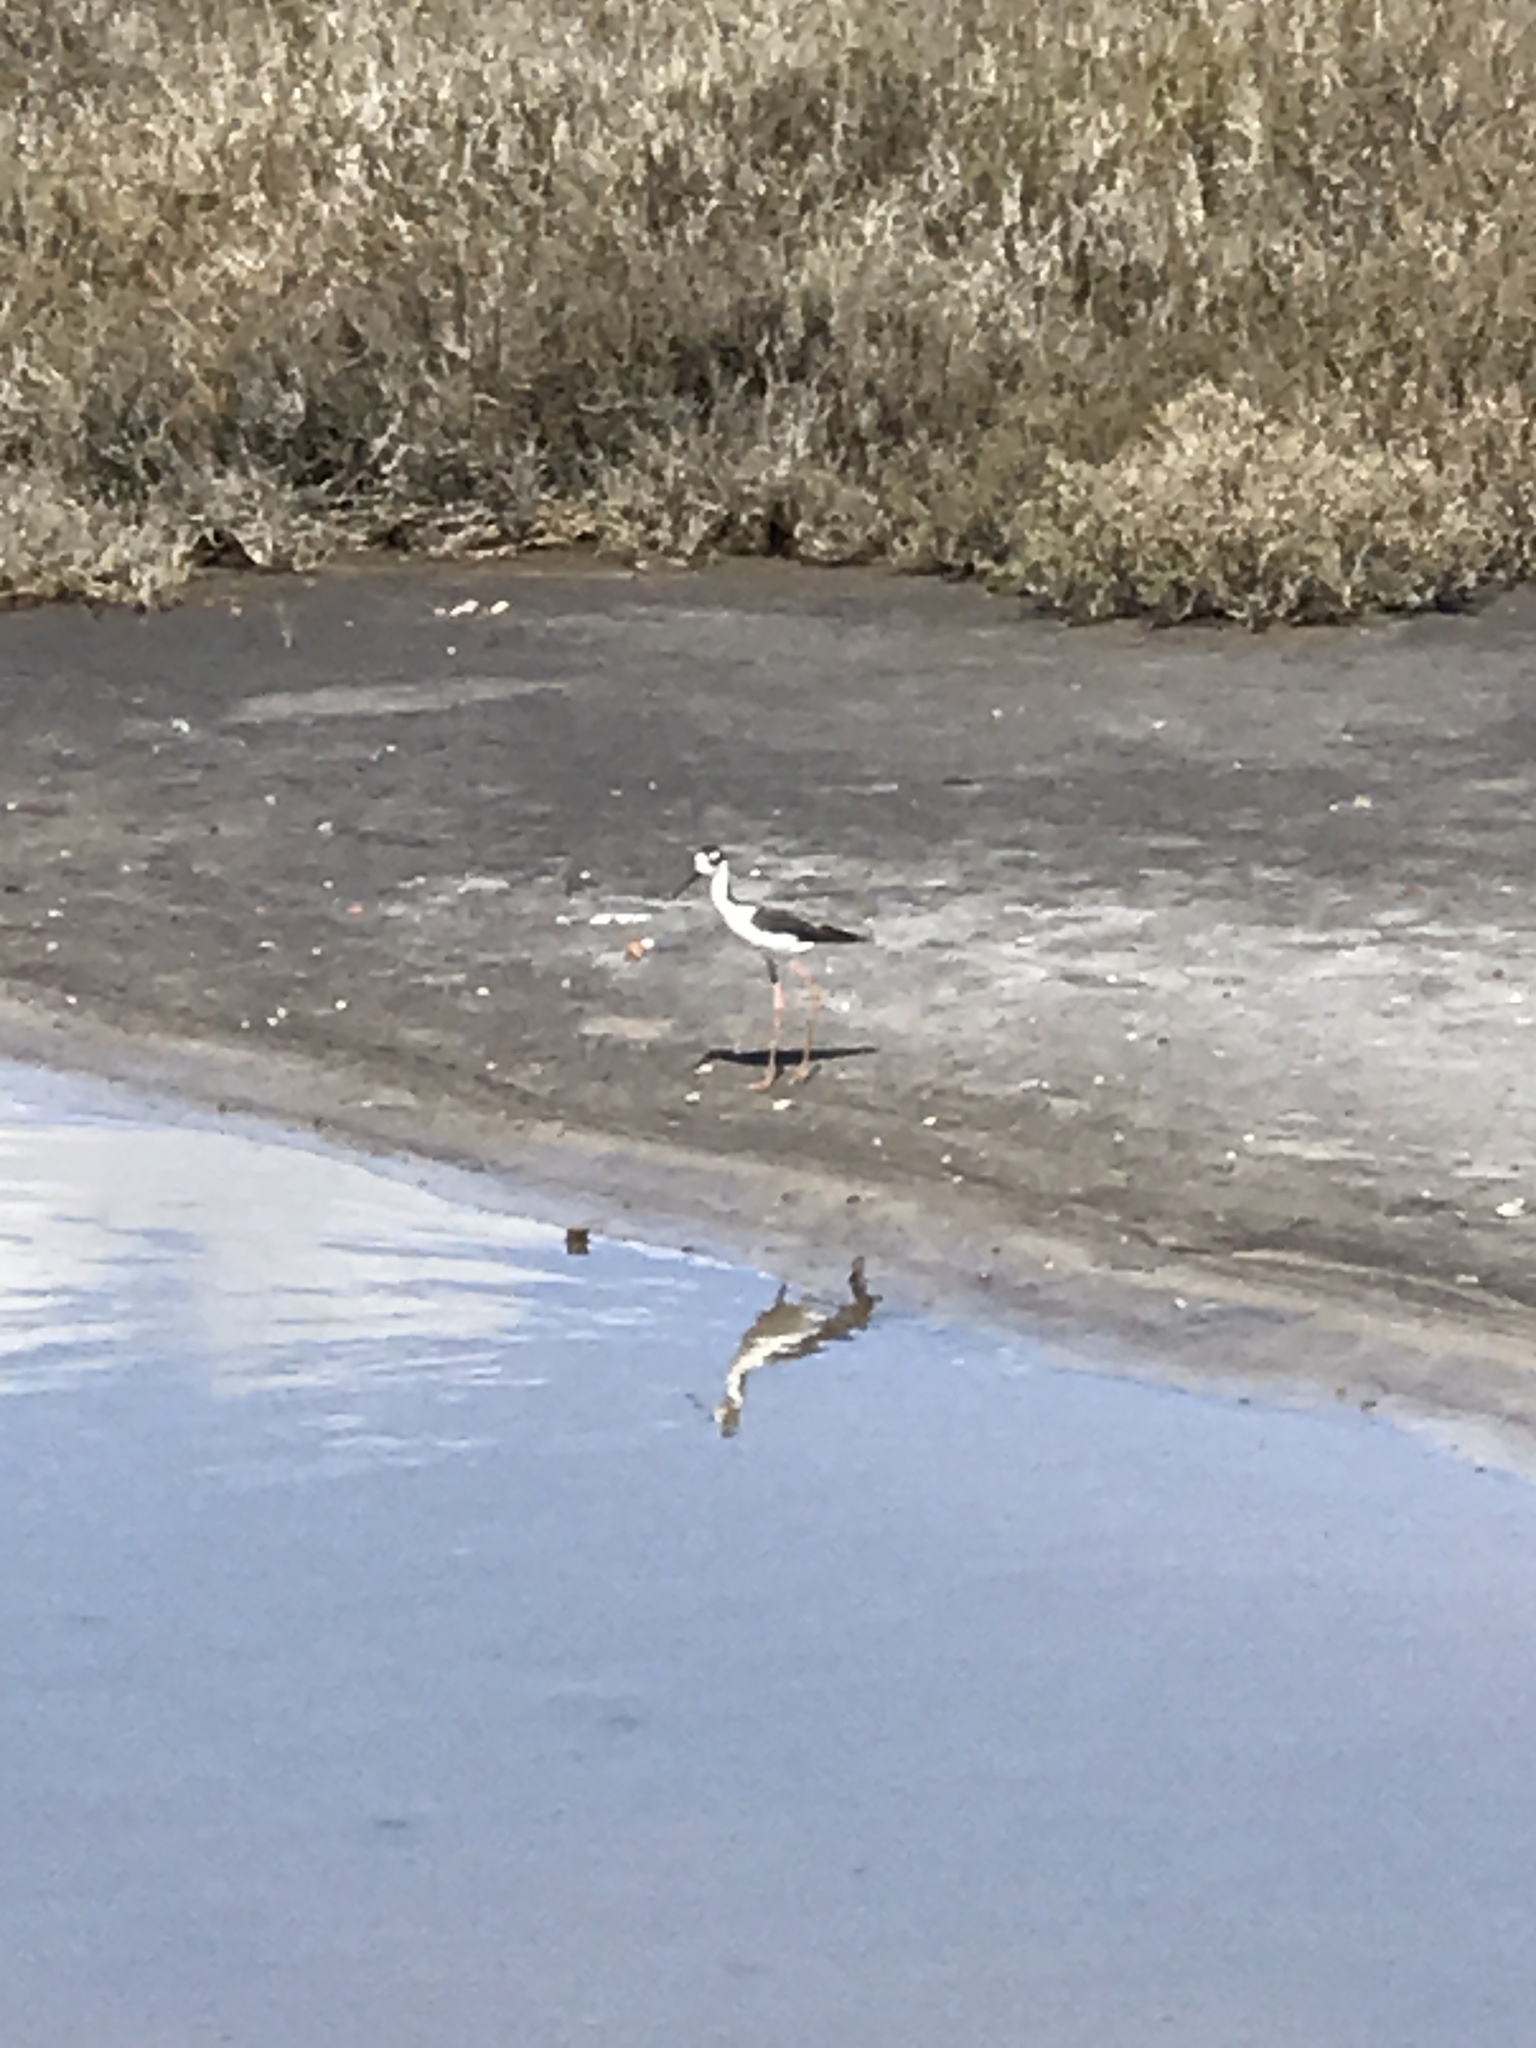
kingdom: Animalia
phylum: Chordata
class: Aves
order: Charadriiformes
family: Recurvirostridae
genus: Himantopus
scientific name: Himantopus mexicanus
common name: Black-necked stilt
